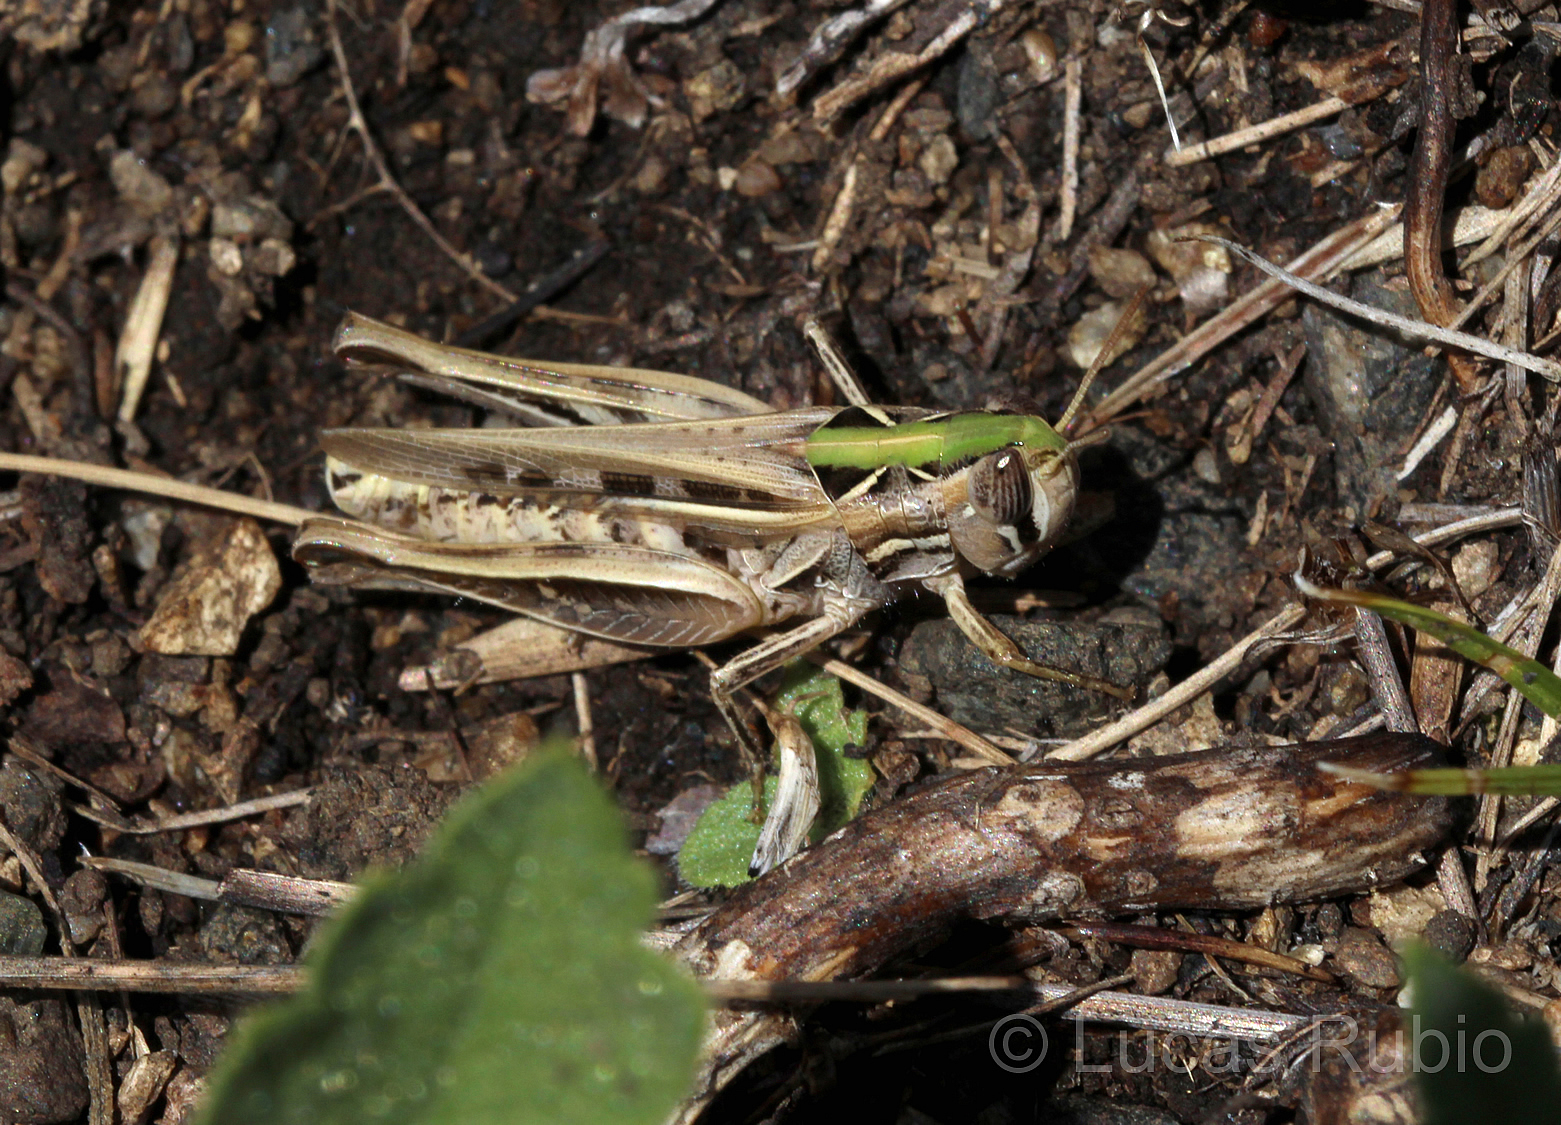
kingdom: Animalia
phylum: Arthropoda
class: Insecta
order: Orthoptera
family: Acrididae
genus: Borellia
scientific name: Borellia bruneri
